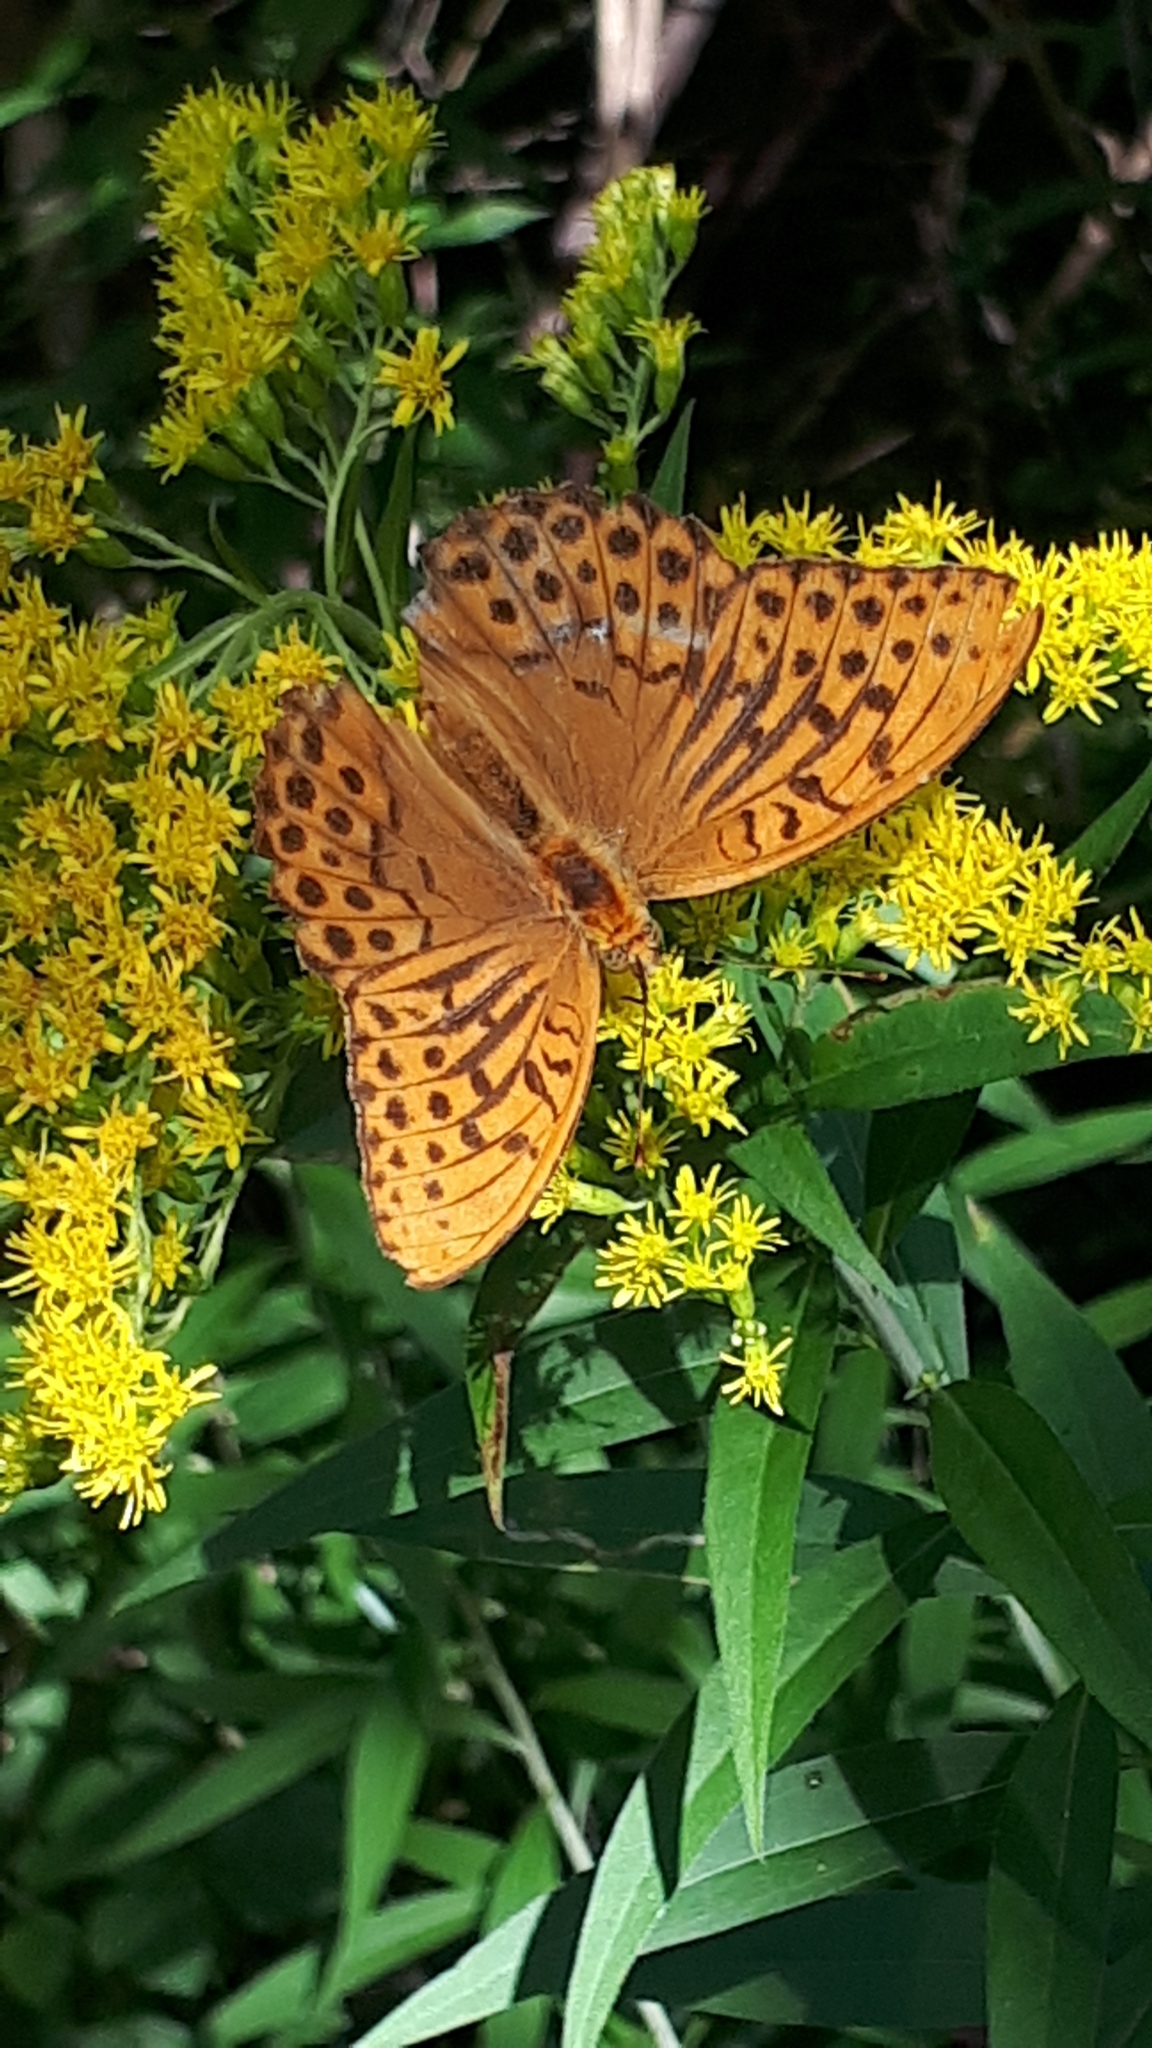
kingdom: Animalia
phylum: Arthropoda
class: Insecta
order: Lepidoptera
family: Nymphalidae
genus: Argynnis
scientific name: Argynnis paphia
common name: Silver-washed fritillary
